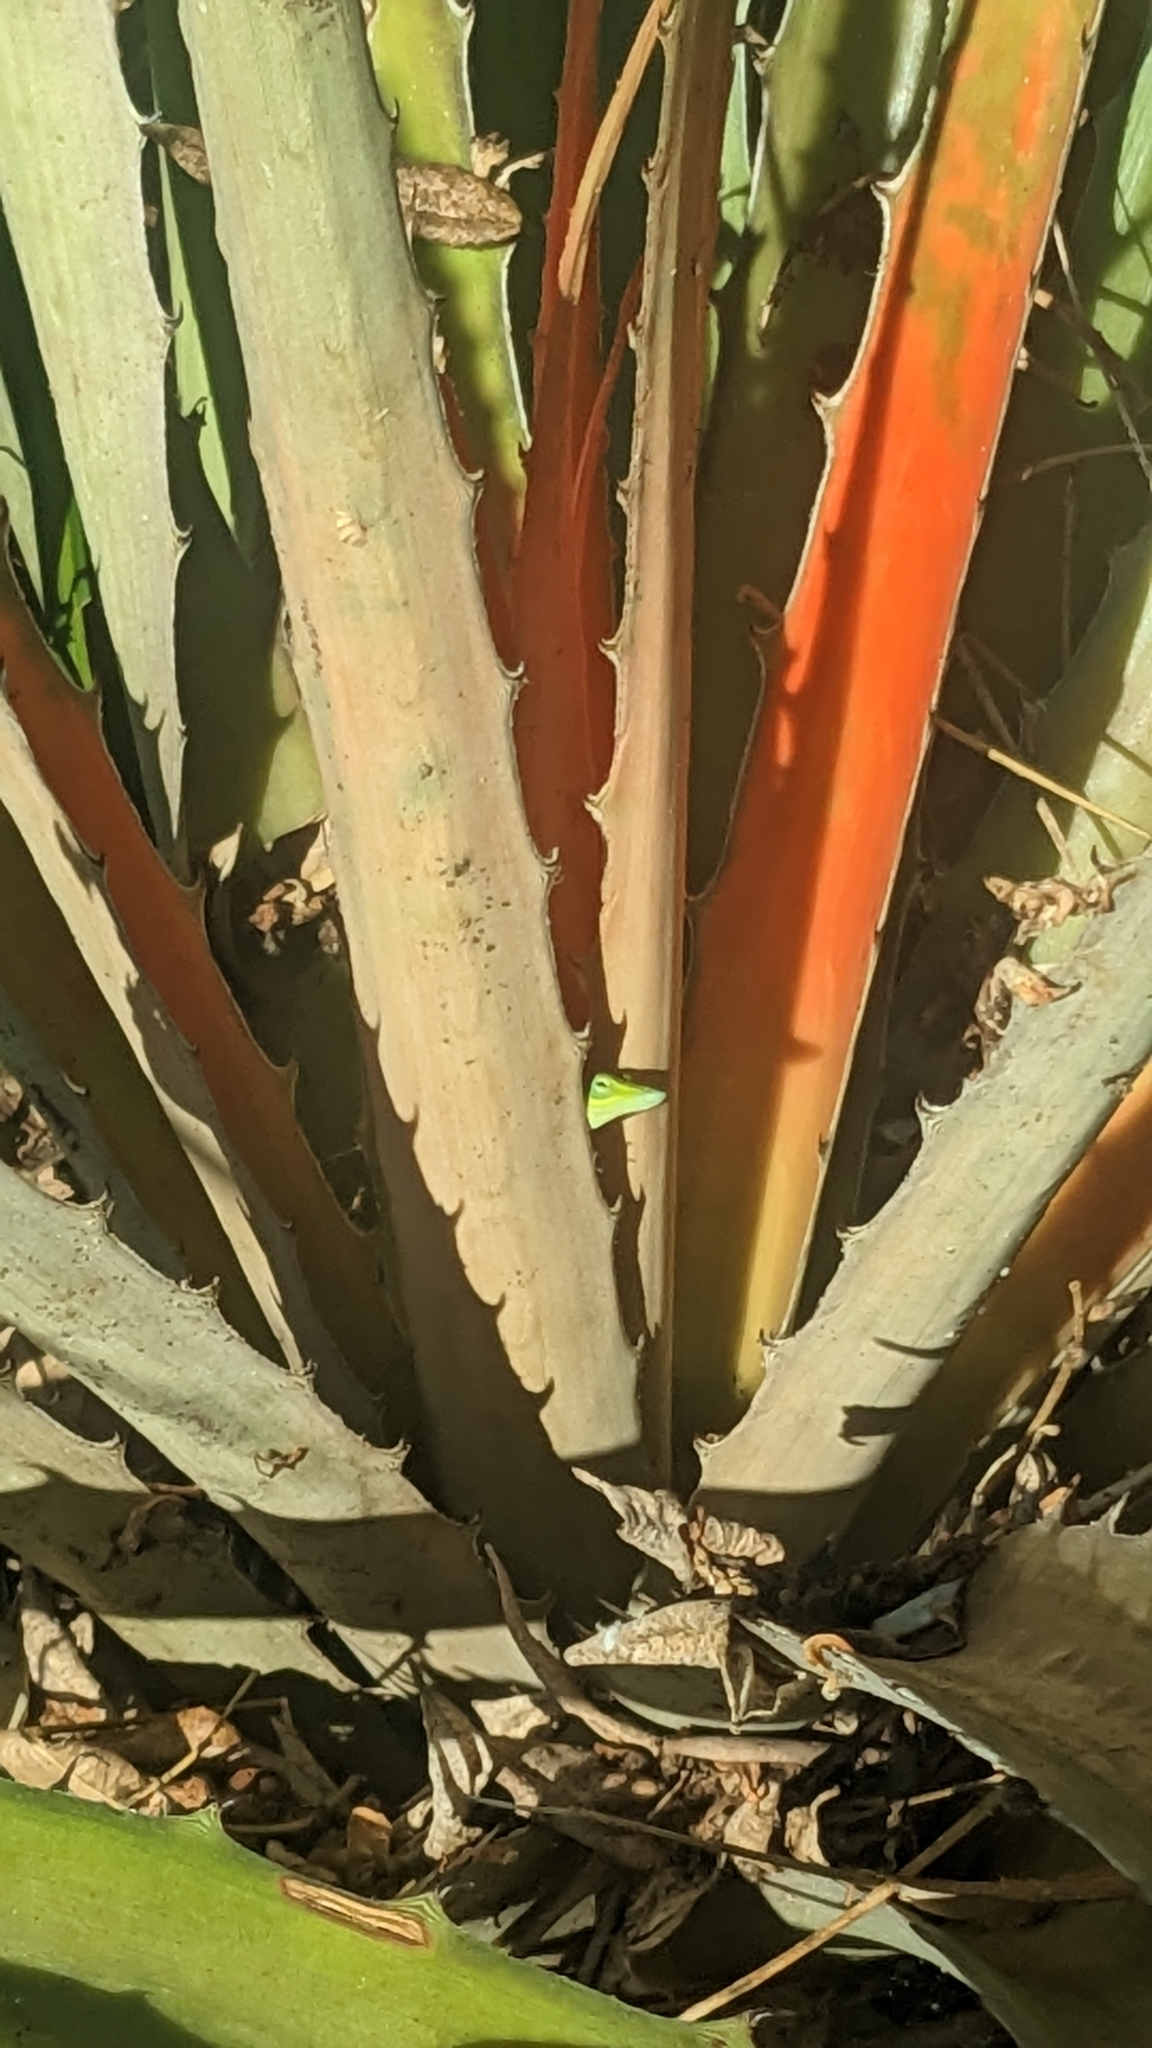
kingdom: Animalia
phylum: Chordata
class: Squamata
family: Dactyloidae
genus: Anolis
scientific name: Anolis porcatus
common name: Cuban green anole
